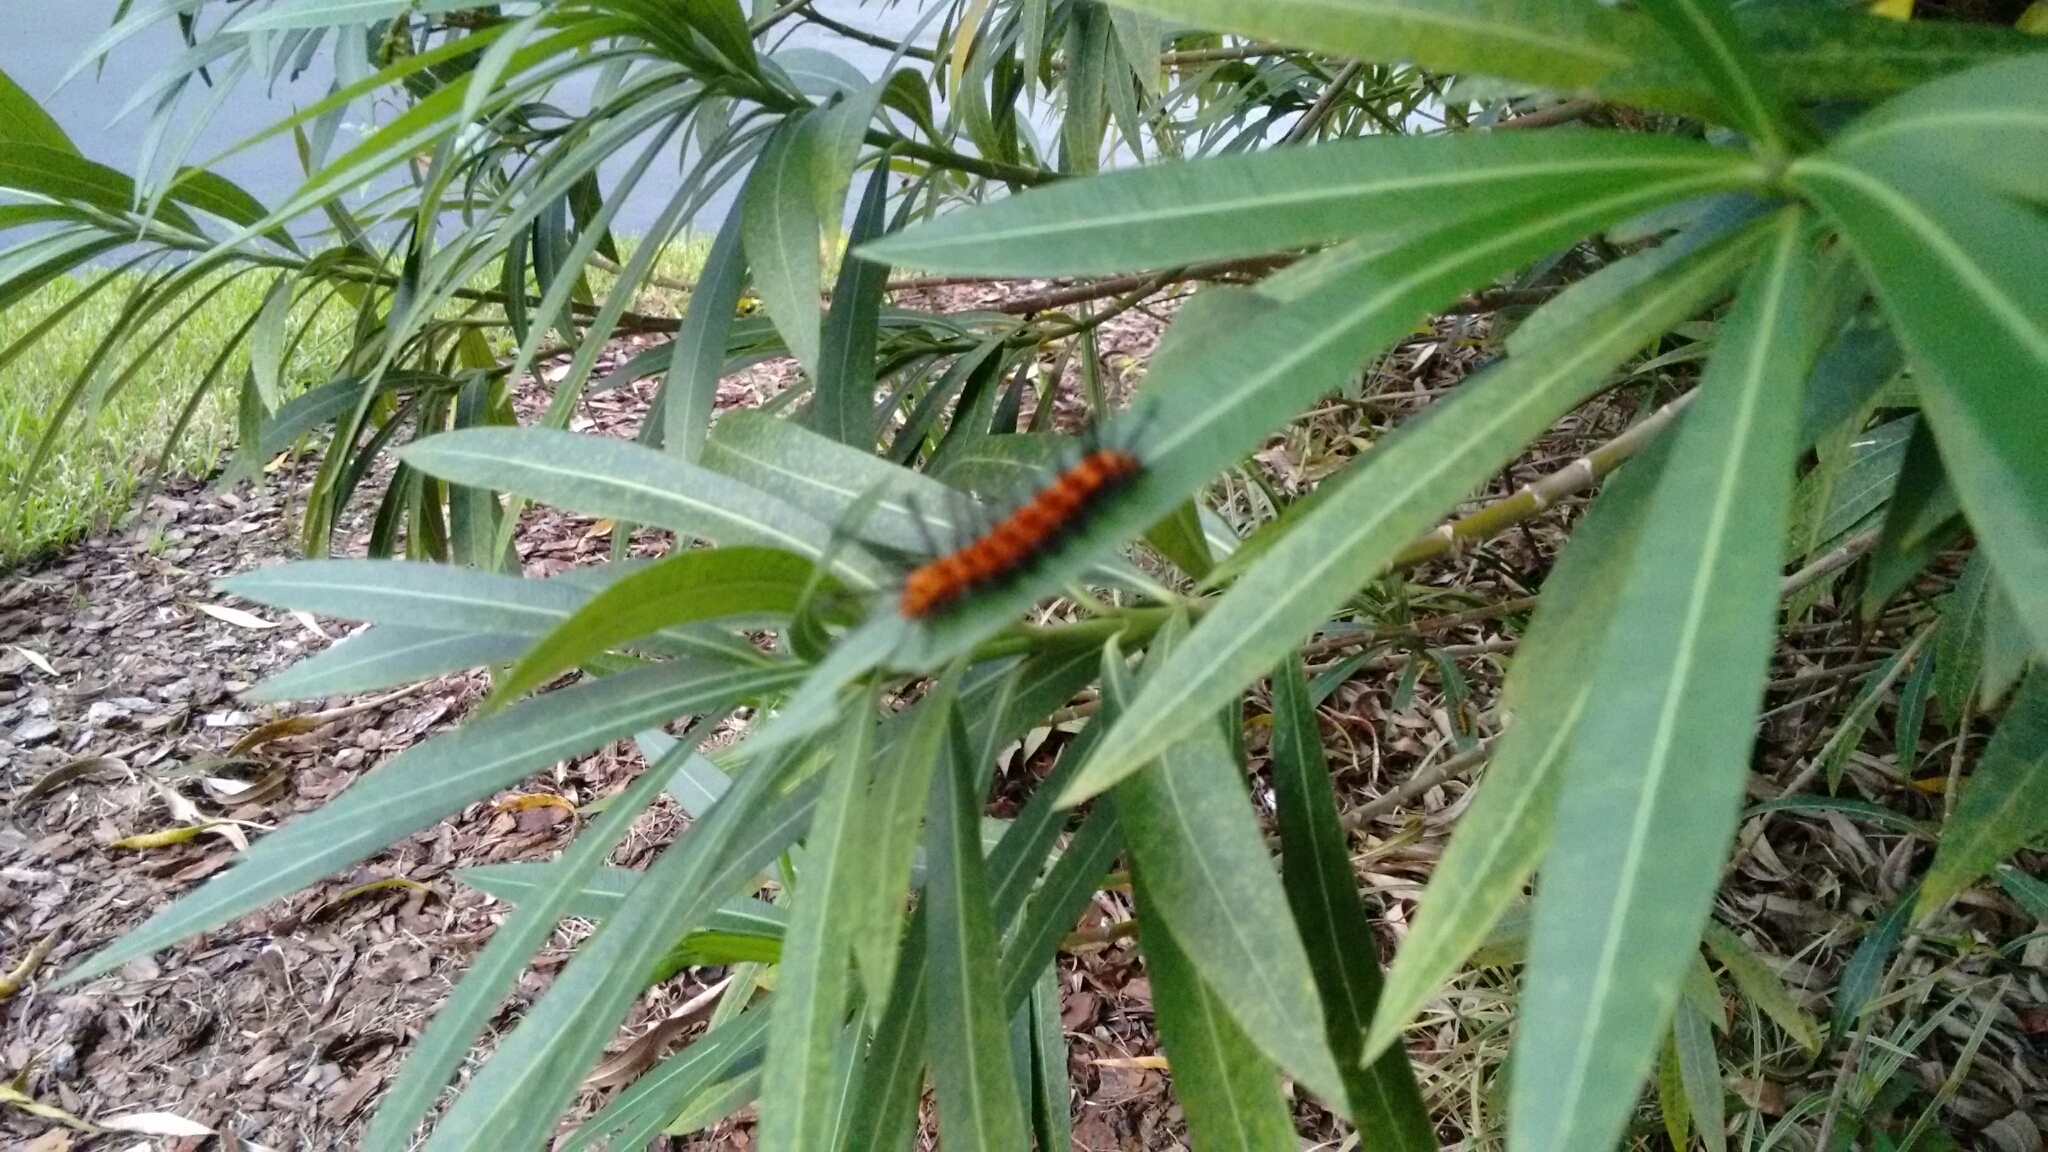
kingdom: Animalia
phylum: Arthropoda
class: Insecta
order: Lepidoptera
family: Erebidae
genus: Syntomeida
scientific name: Syntomeida epilais
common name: Polka-dot wasp moth
